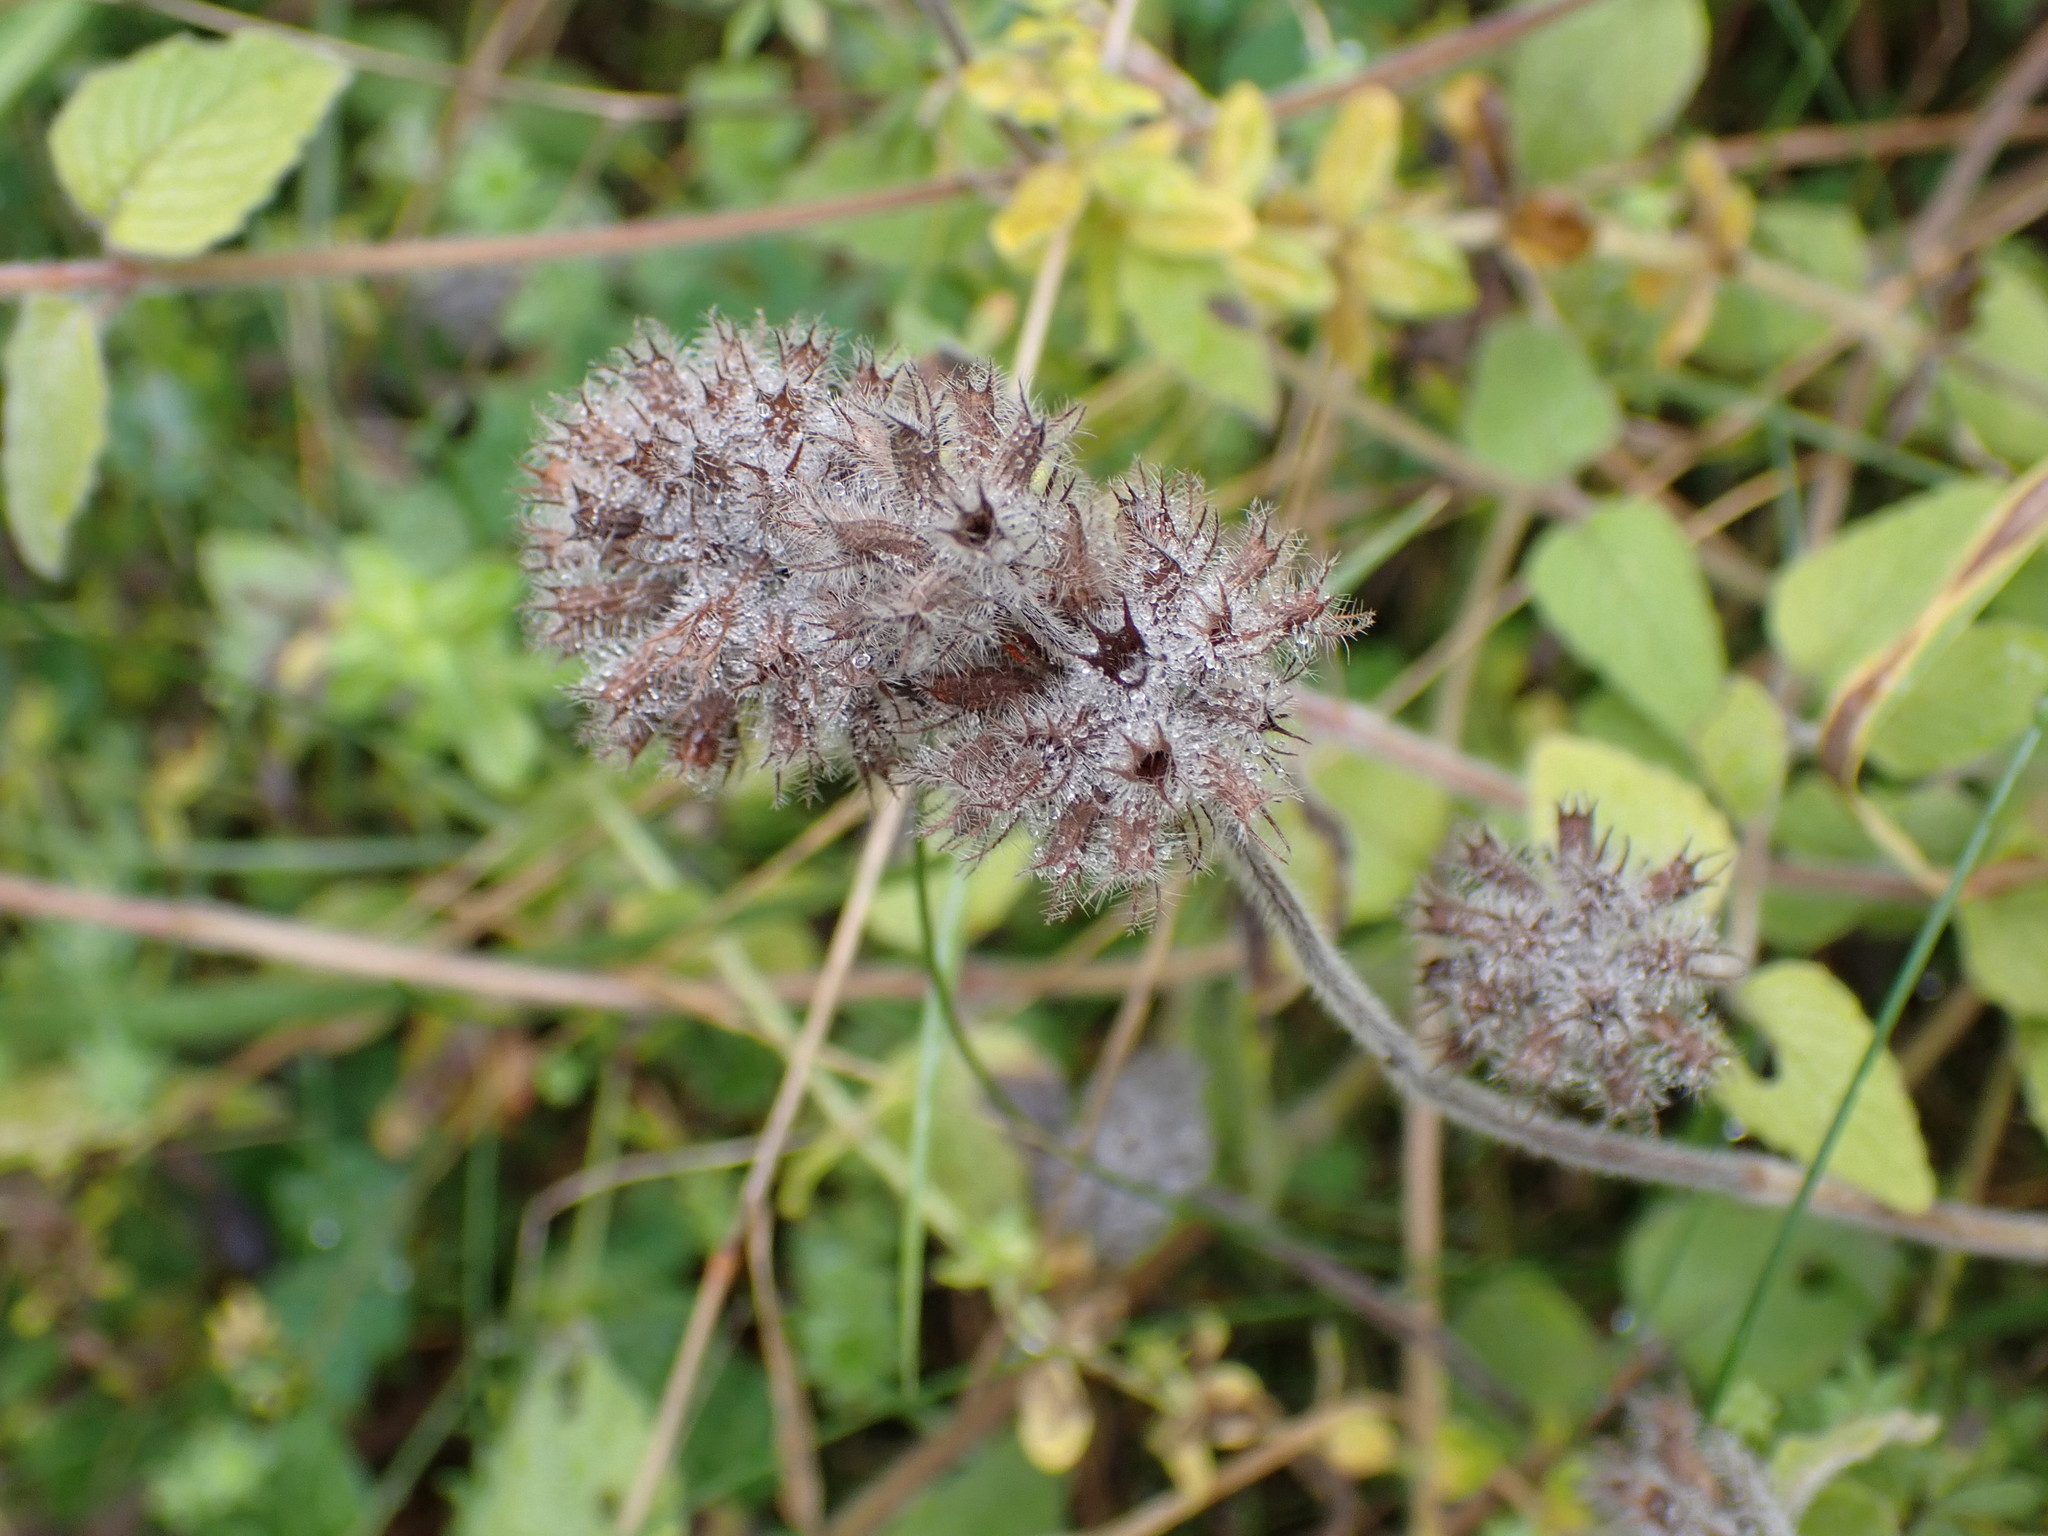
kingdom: Plantae
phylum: Tracheophyta
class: Magnoliopsida
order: Lamiales
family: Lamiaceae
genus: Clinopodium
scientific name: Clinopodium vulgare
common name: Wild basil
